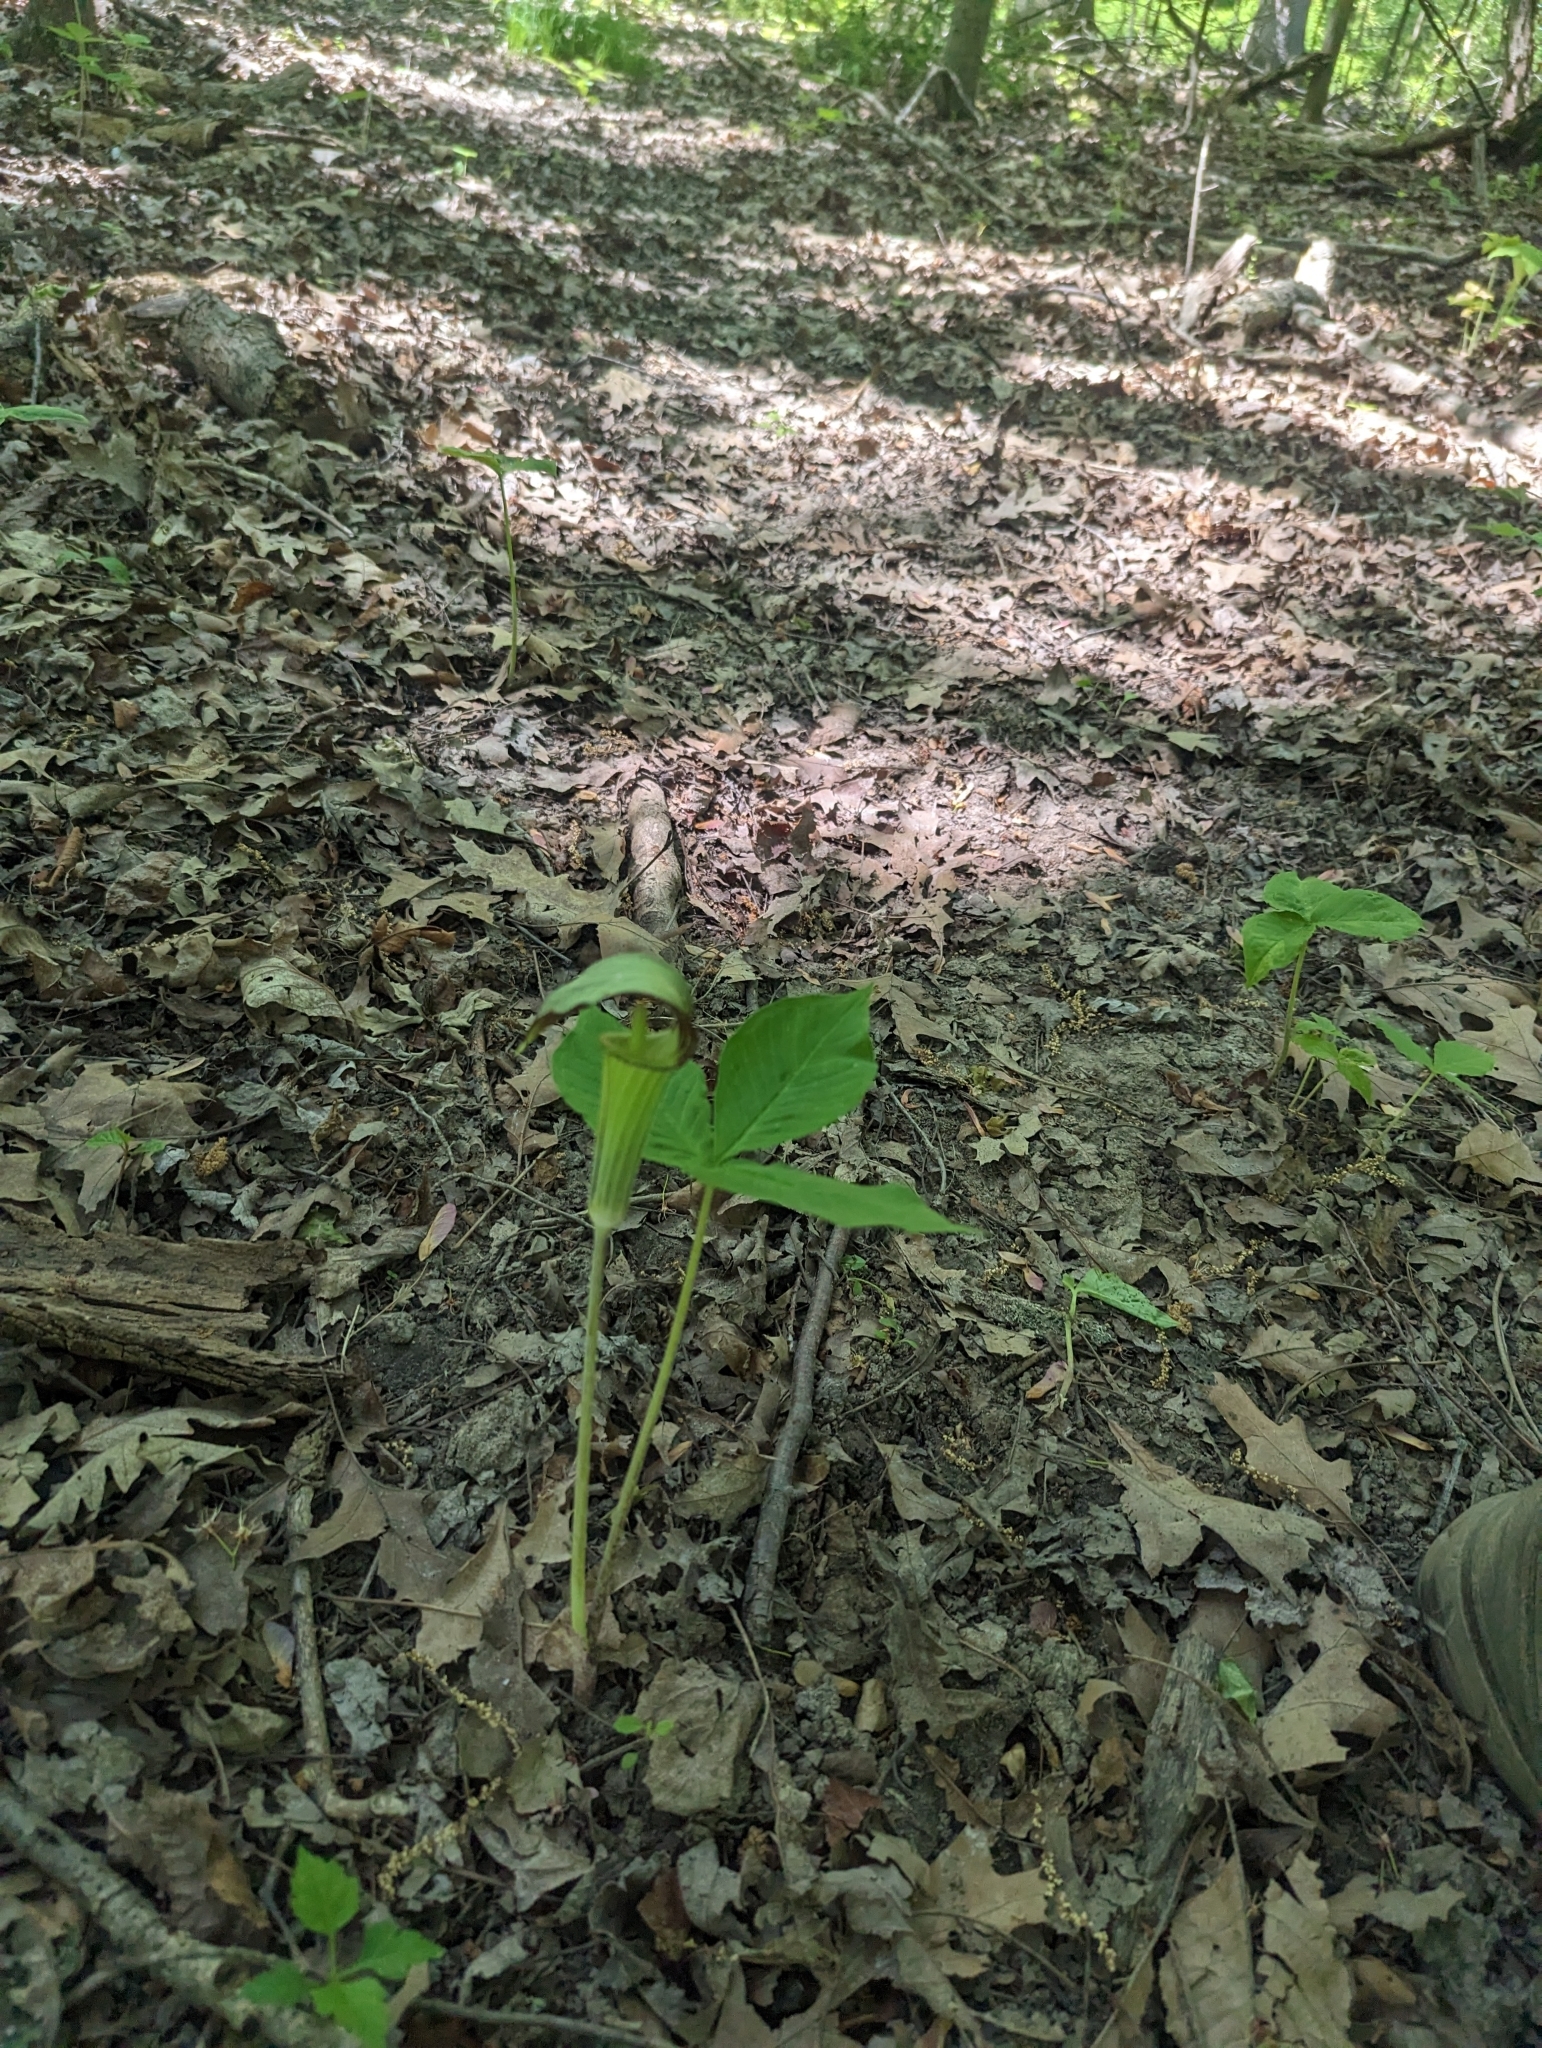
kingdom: Plantae
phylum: Tracheophyta
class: Liliopsida
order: Alismatales
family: Araceae
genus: Arisaema
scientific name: Arisaema triphyllum
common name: Jack-in-the-pulpit
